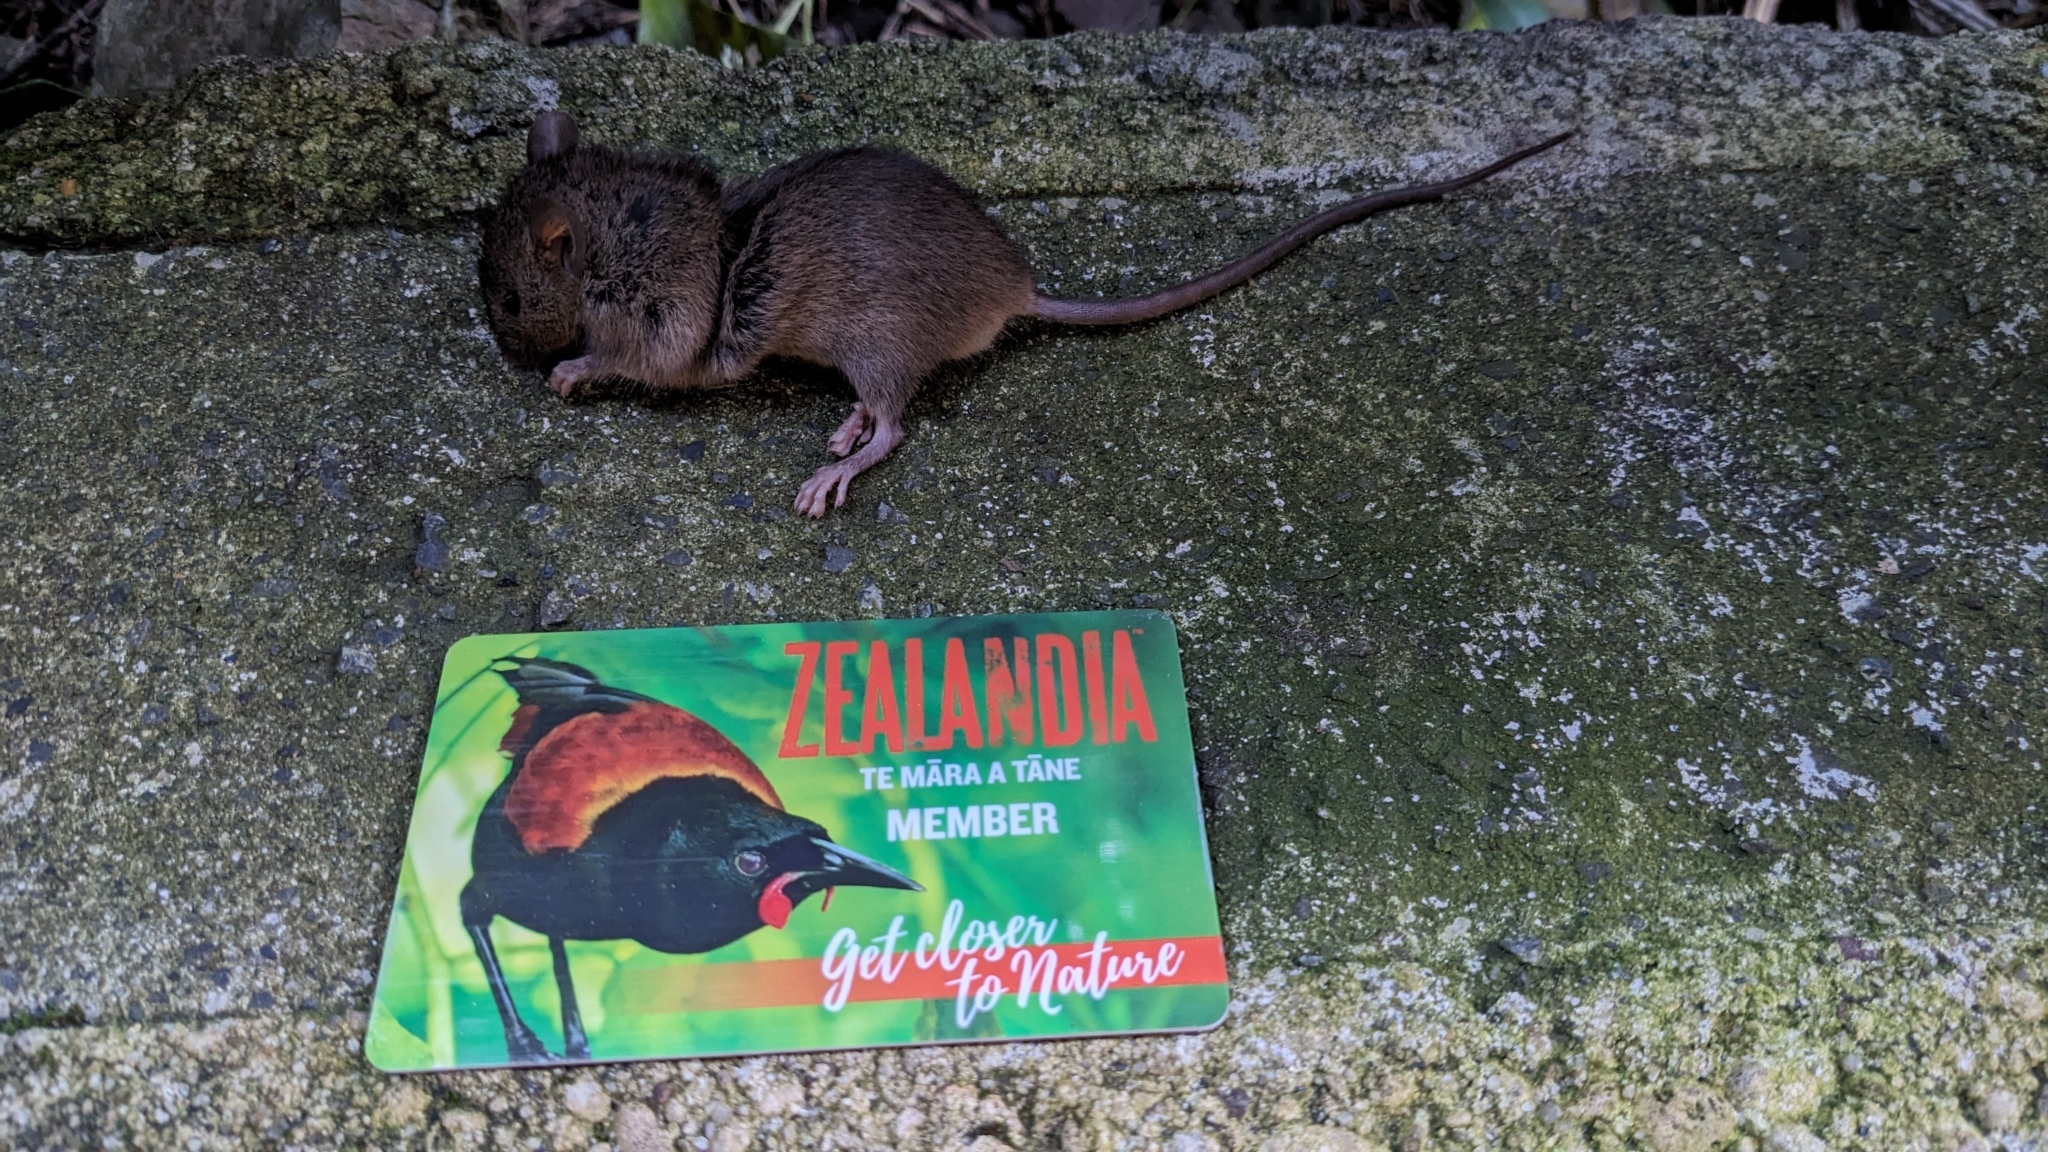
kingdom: Animalia
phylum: Chordata
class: Mammalia
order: Rodentia
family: Muridae
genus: Mus
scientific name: Mus musculus
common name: House mouse
